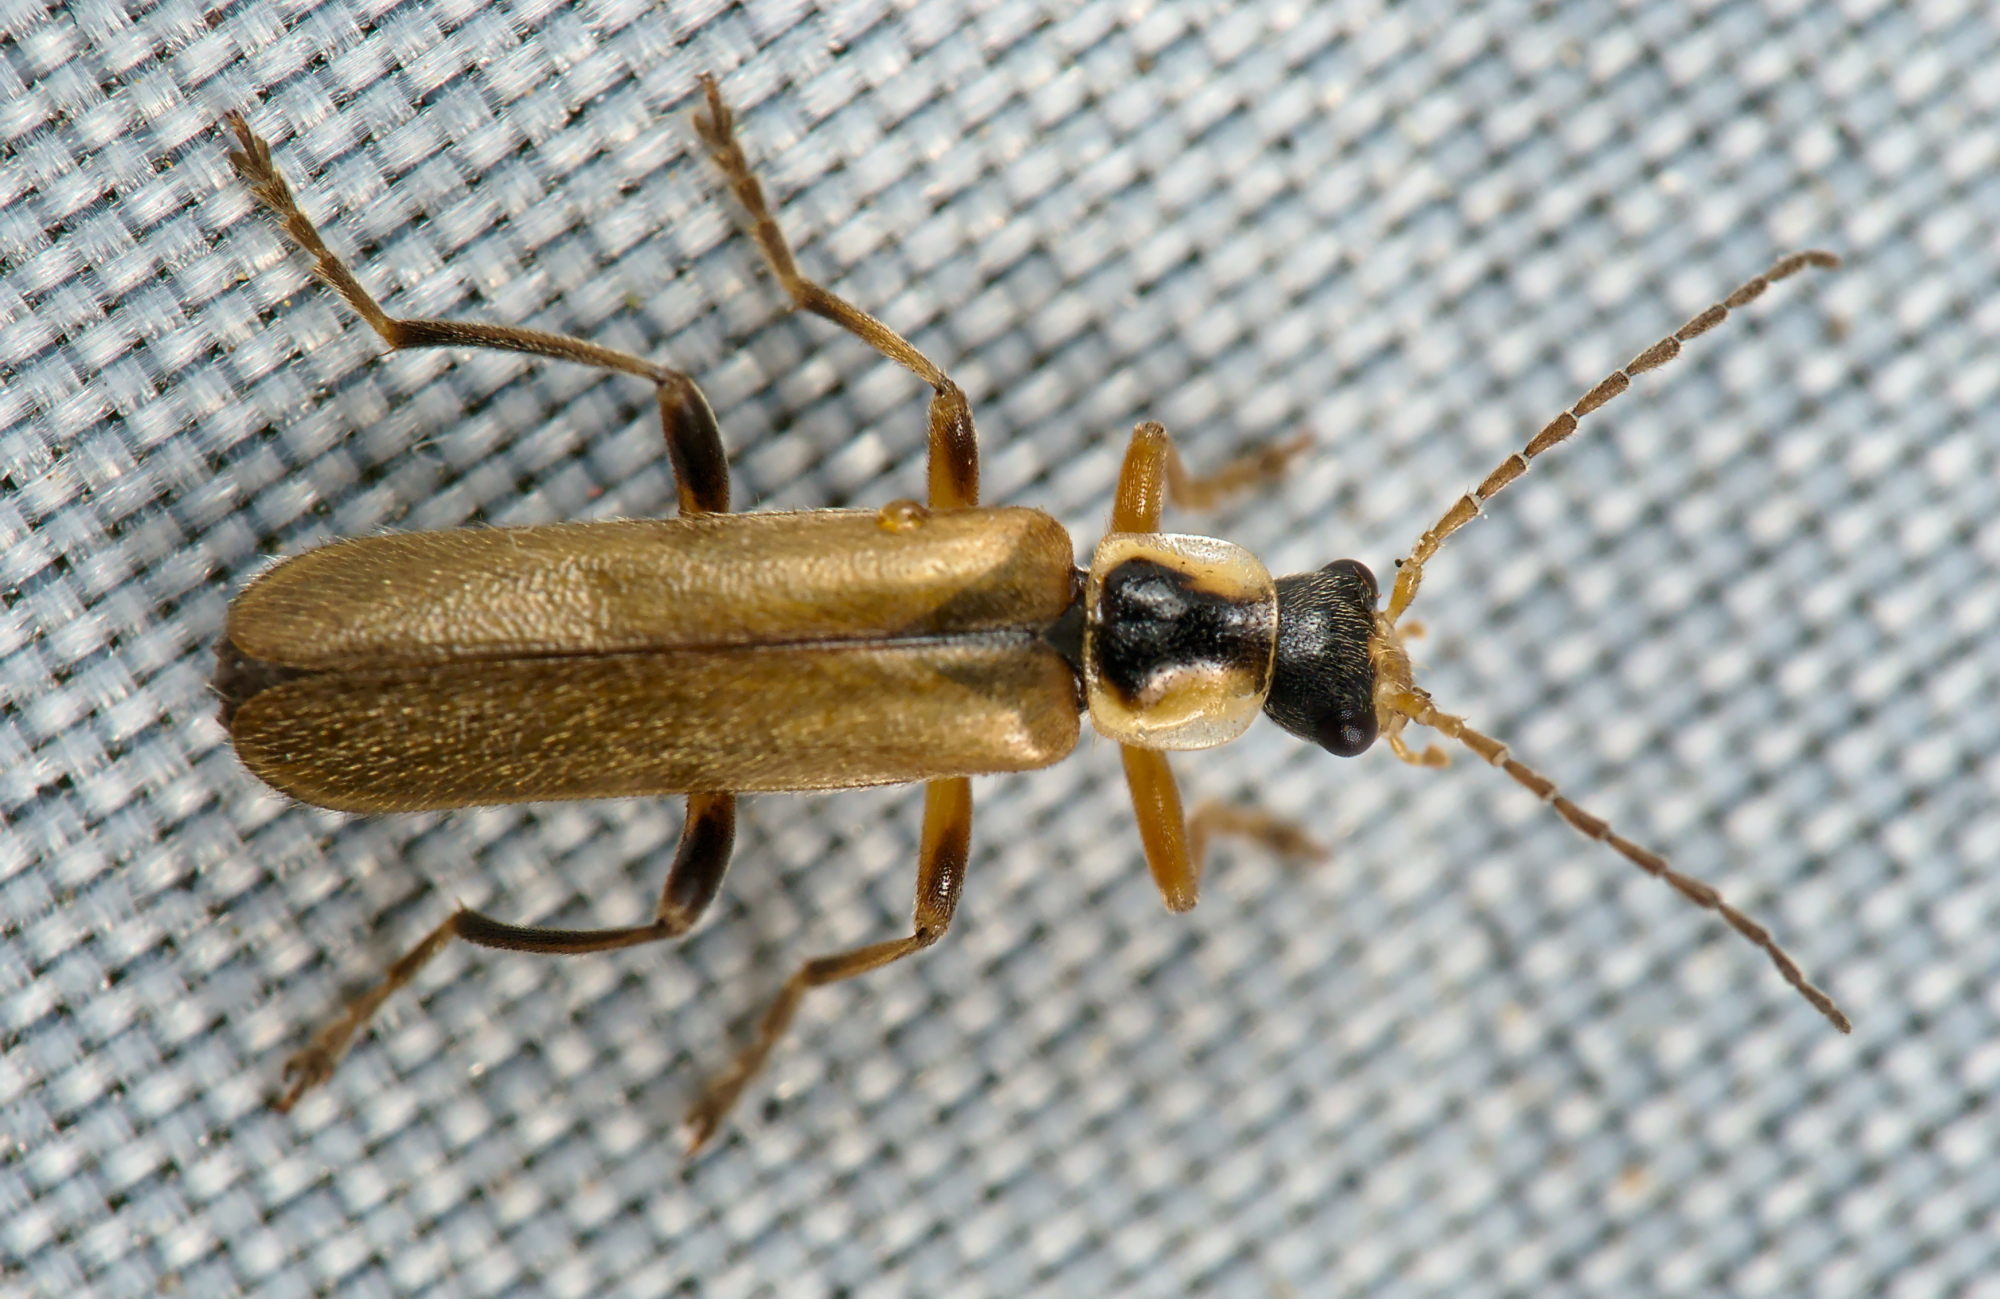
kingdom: Animalia
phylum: Arthropoda
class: Insecta
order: Coleoptera
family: Cantharidae
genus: Cantharis
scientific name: Cantharis decipiens
